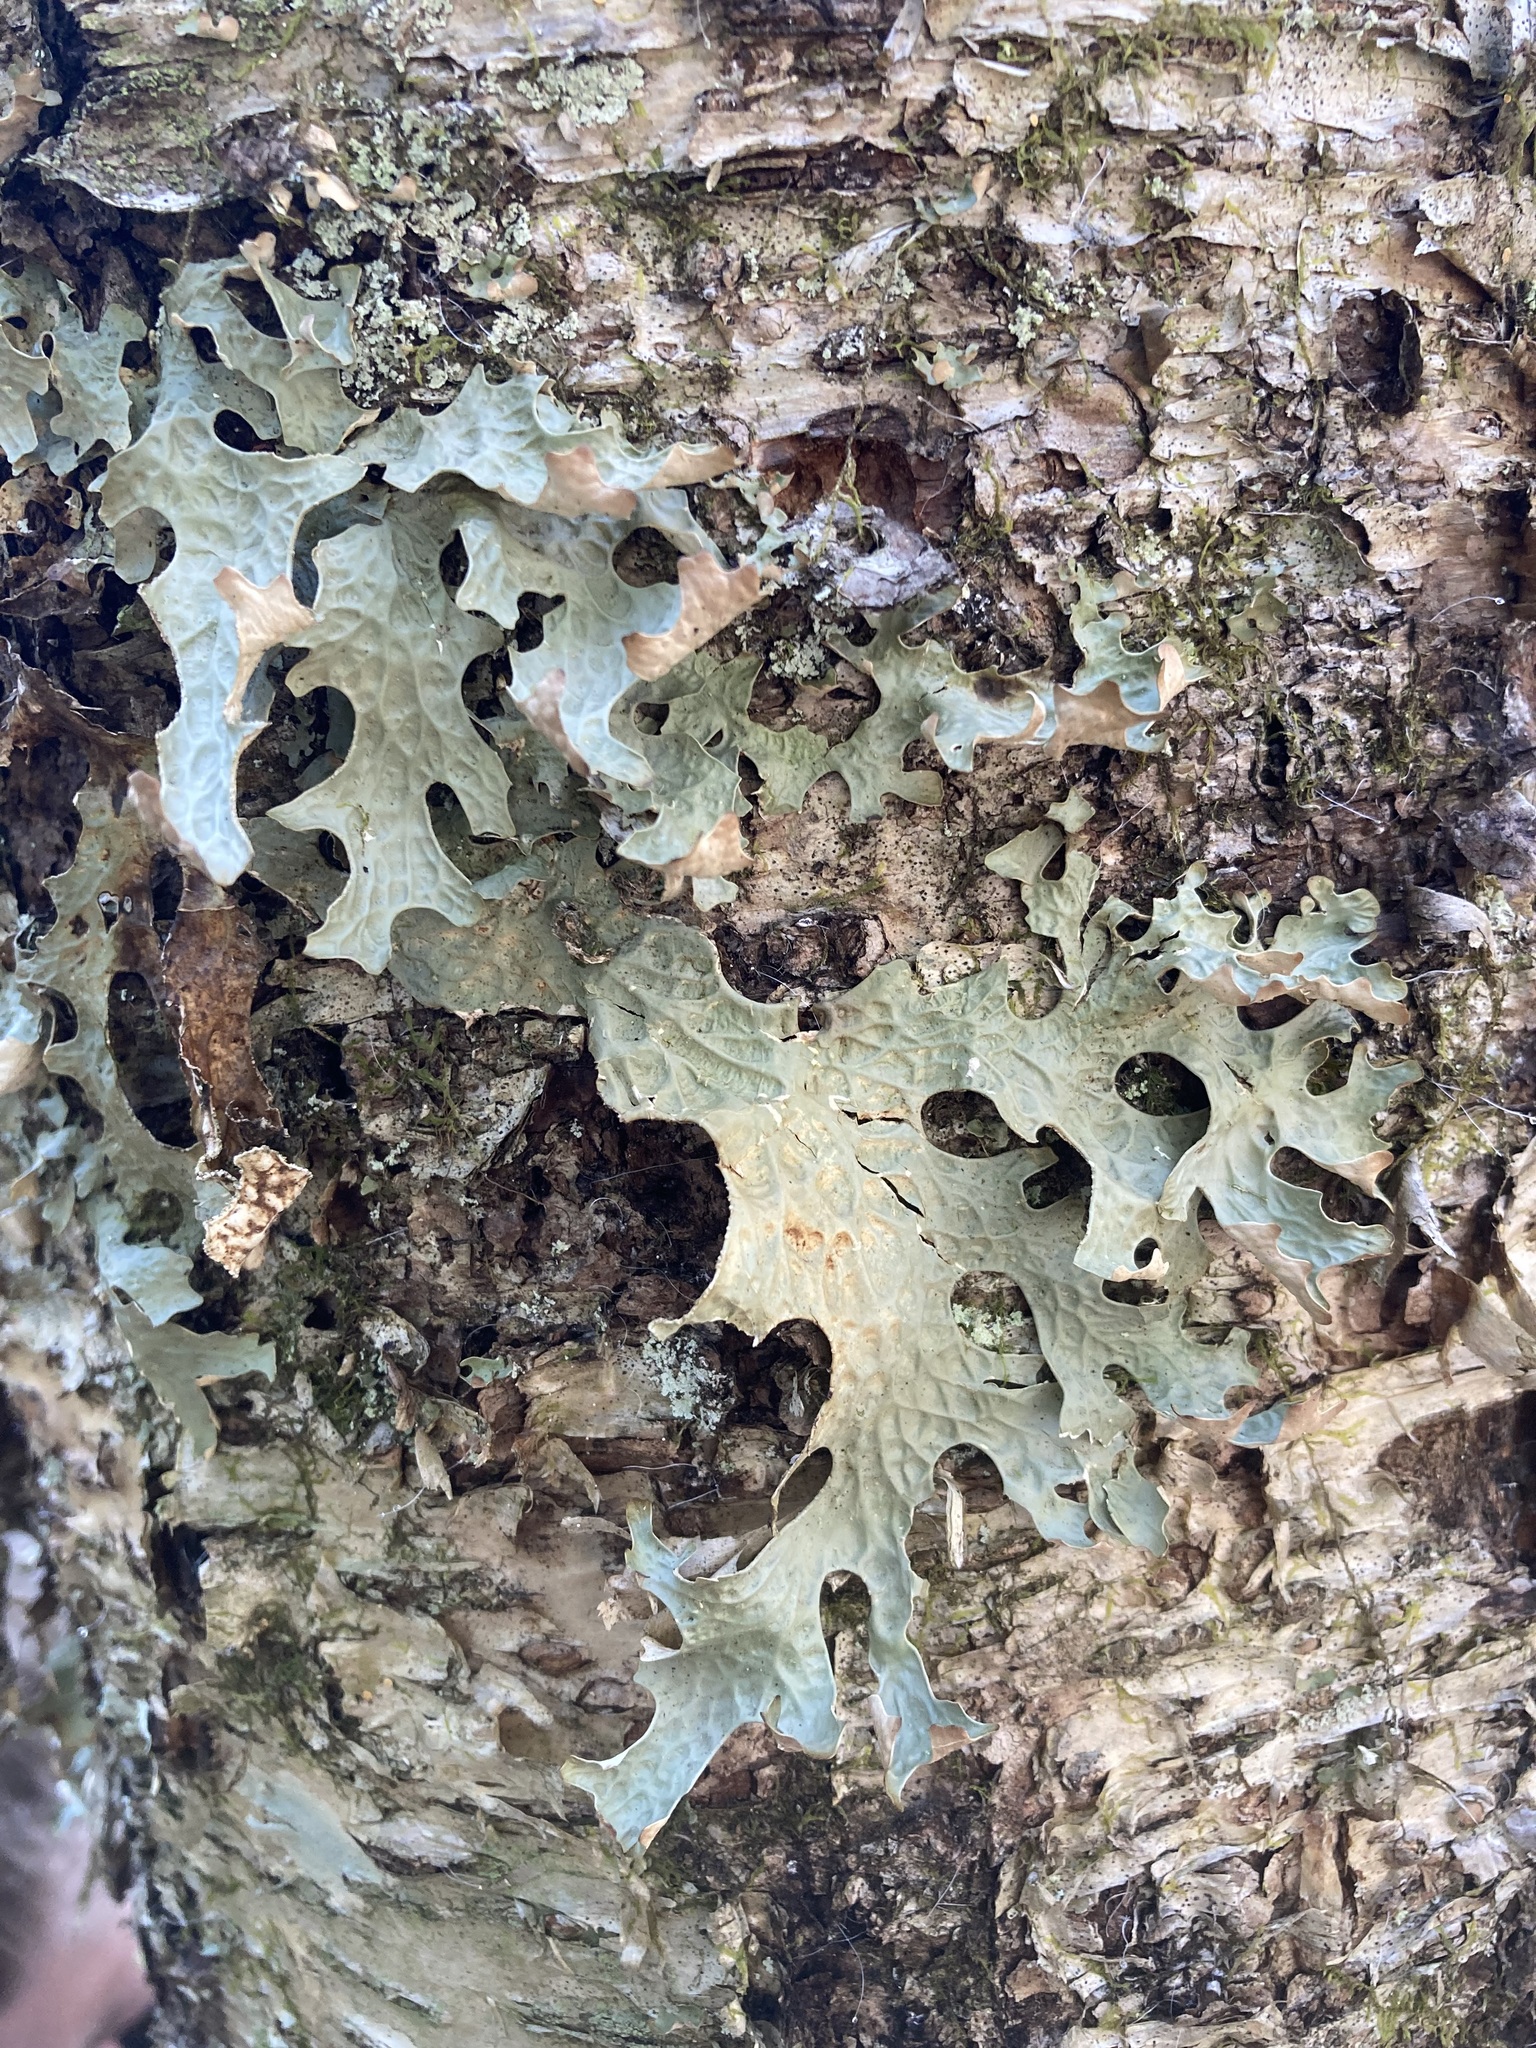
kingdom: Fungi
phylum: Ascomycota
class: Lecanoromycetes
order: Peltigerales
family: Lobariaceae
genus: Lobaria
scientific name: Lobaria pulmonaria
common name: Lungwort
